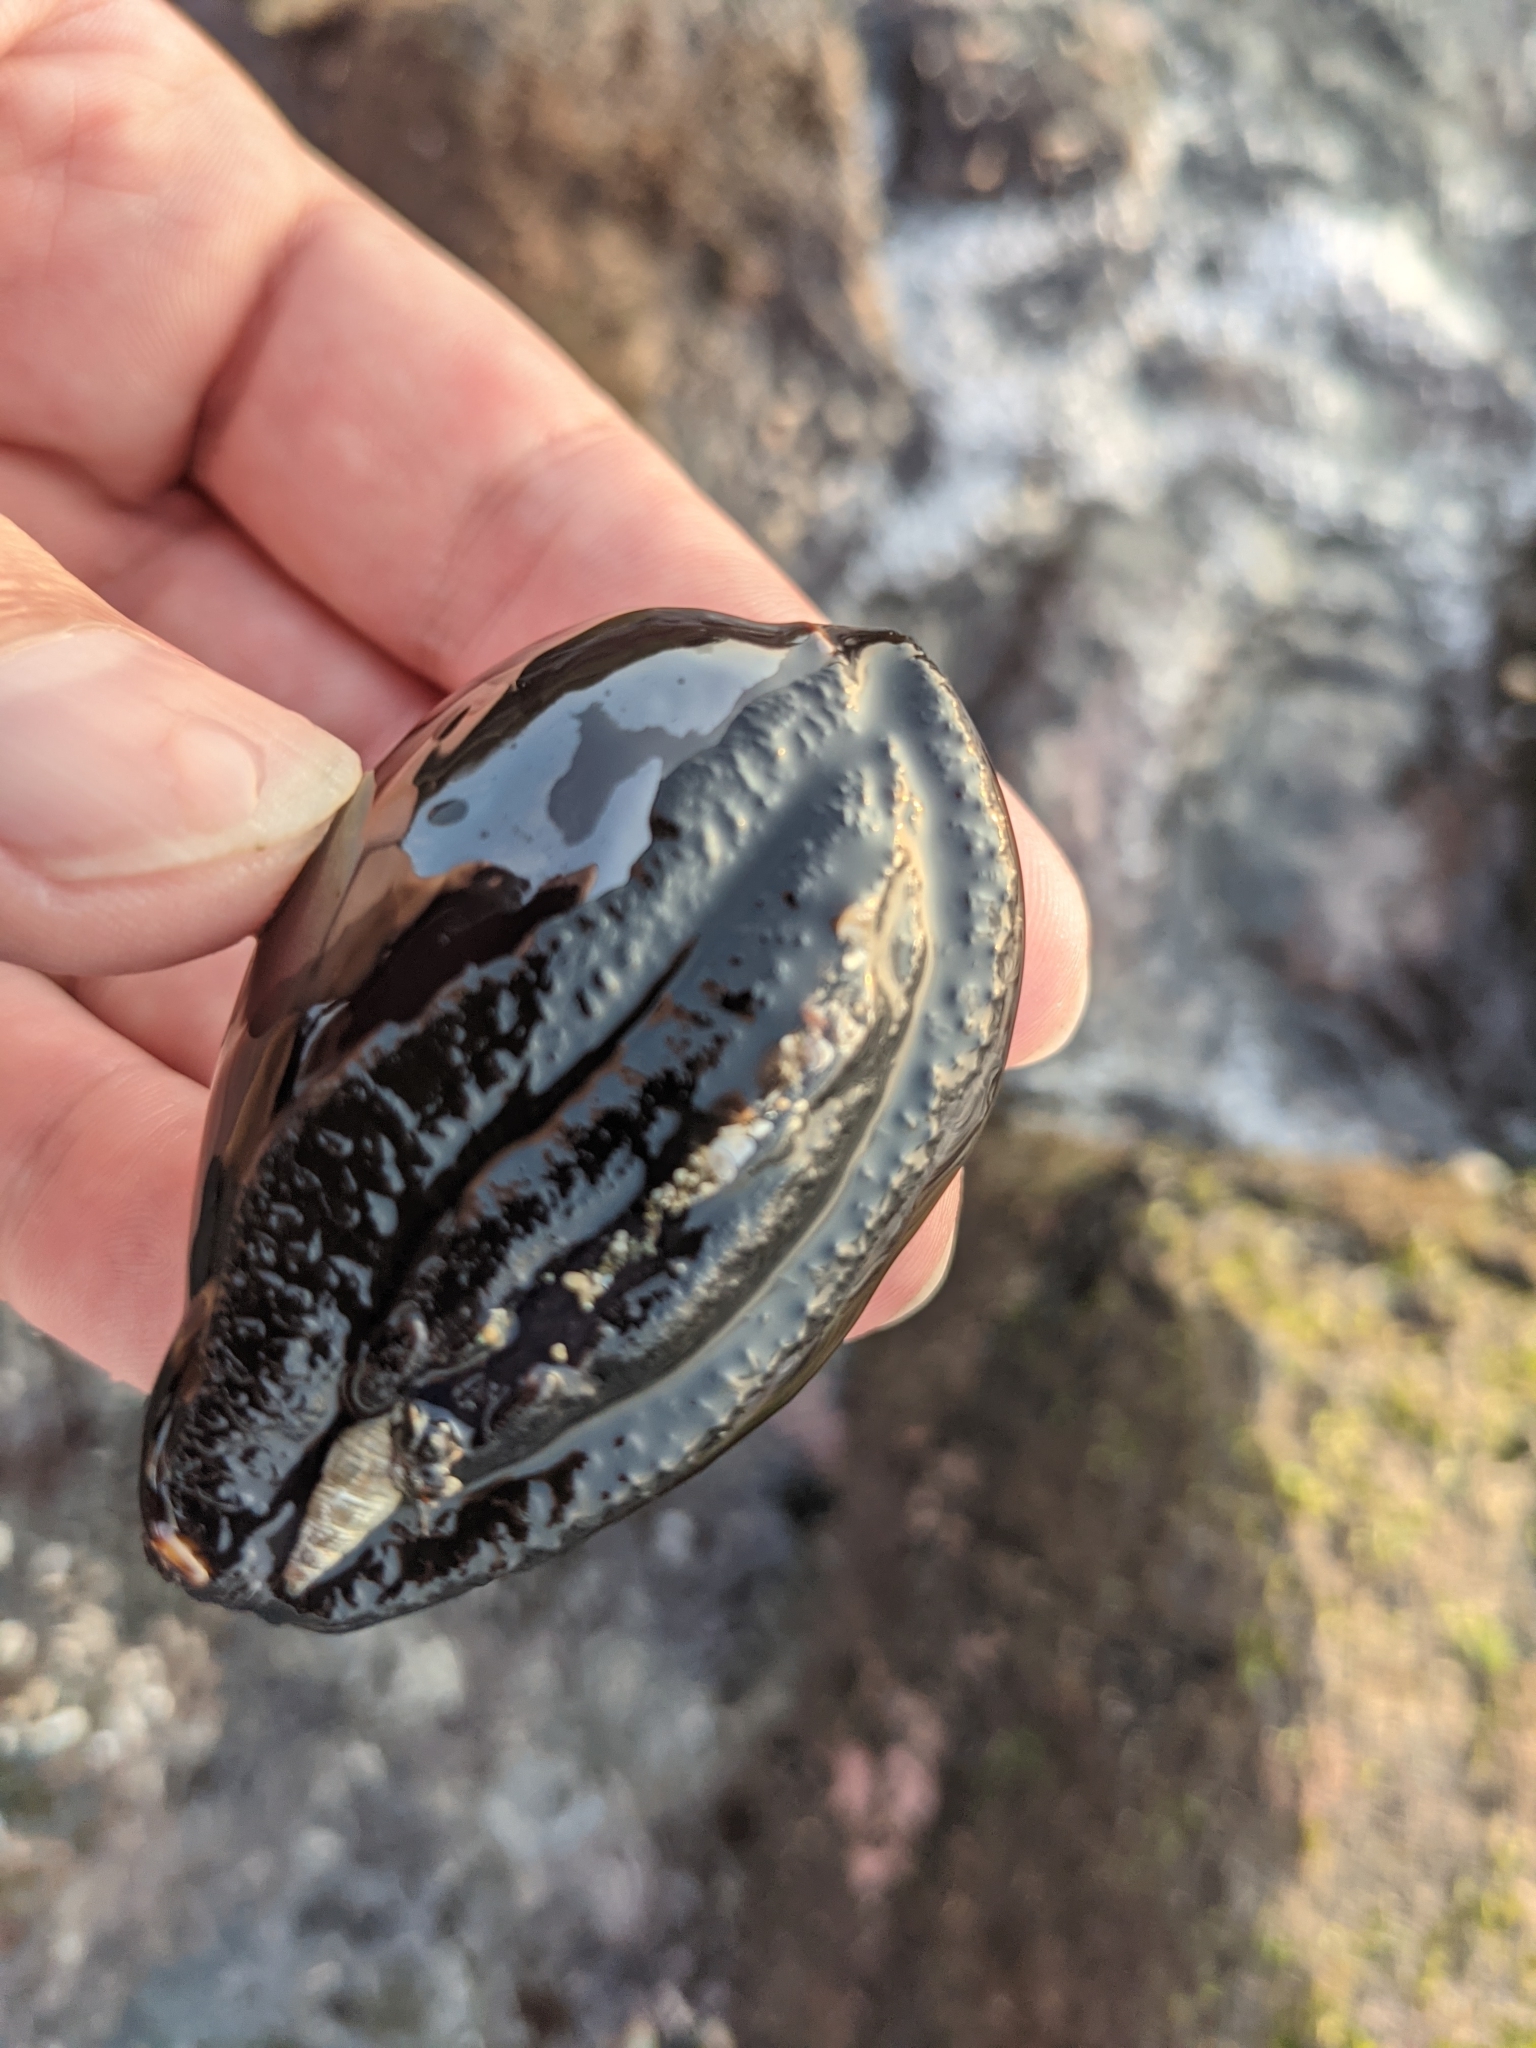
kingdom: Animalia
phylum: Mollusca
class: Gastropoda
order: Littorinimorpha
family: Cypraeidae
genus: Mauritia
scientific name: Mauritia mauritiana
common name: Hump-backed cowrie
